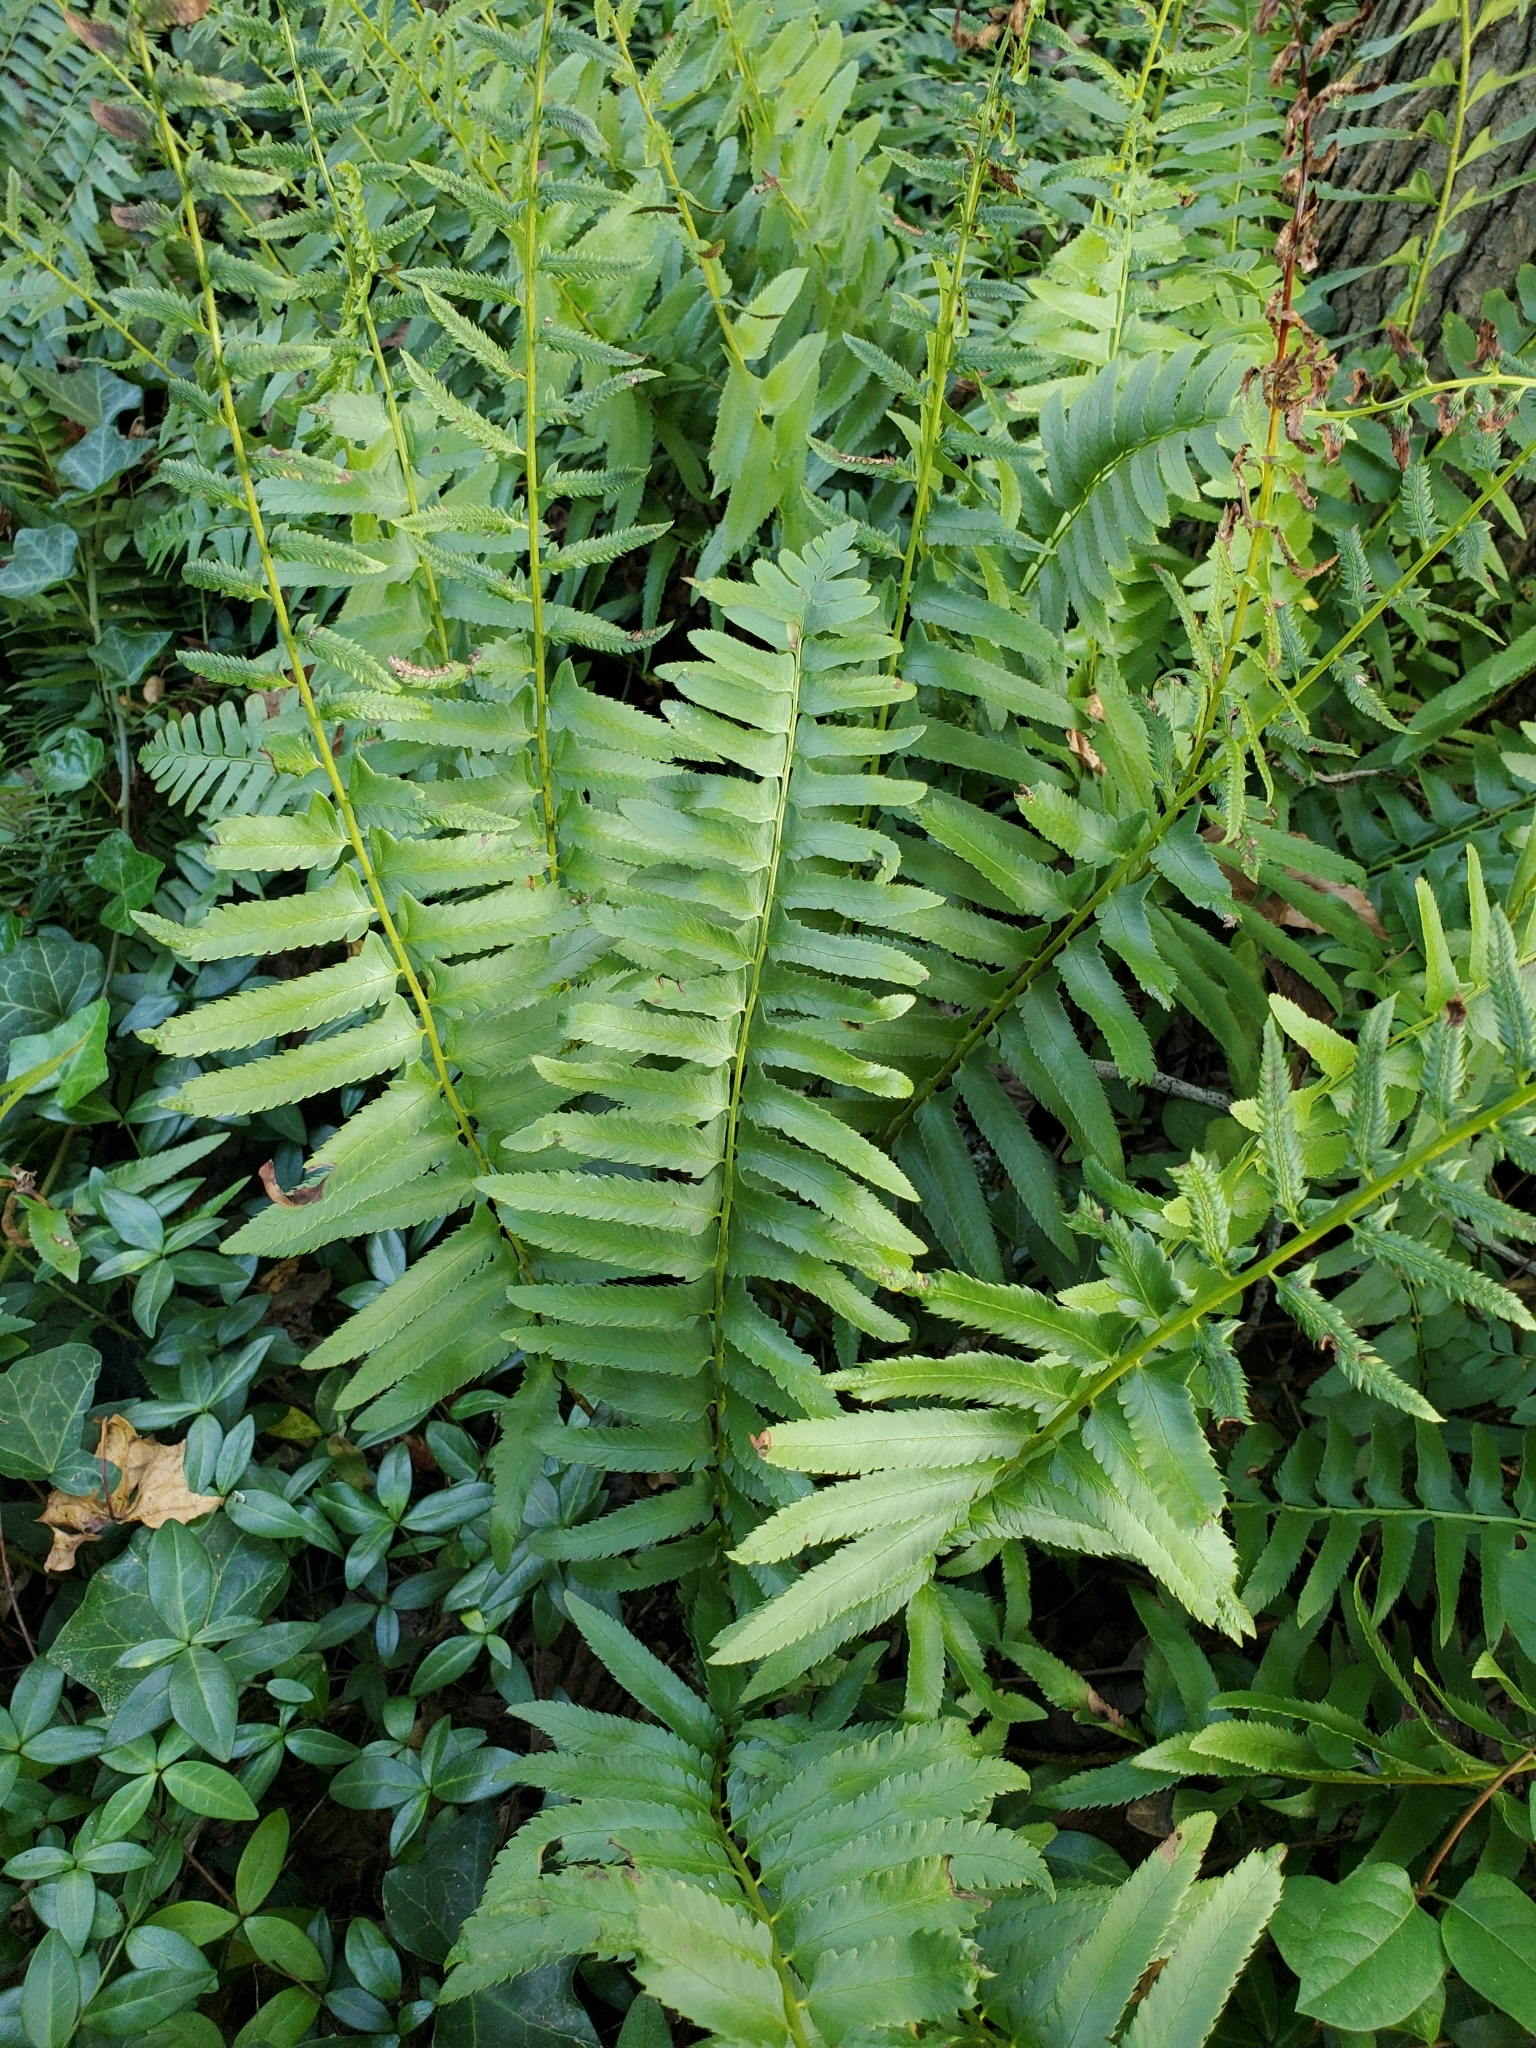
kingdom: Plantae
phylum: Tracheophyta
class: Polypodiopsida
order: Polypodiales
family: Dryopteridaceae
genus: Polystichum
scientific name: Polystichum acrostichoides
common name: Christmas fern
